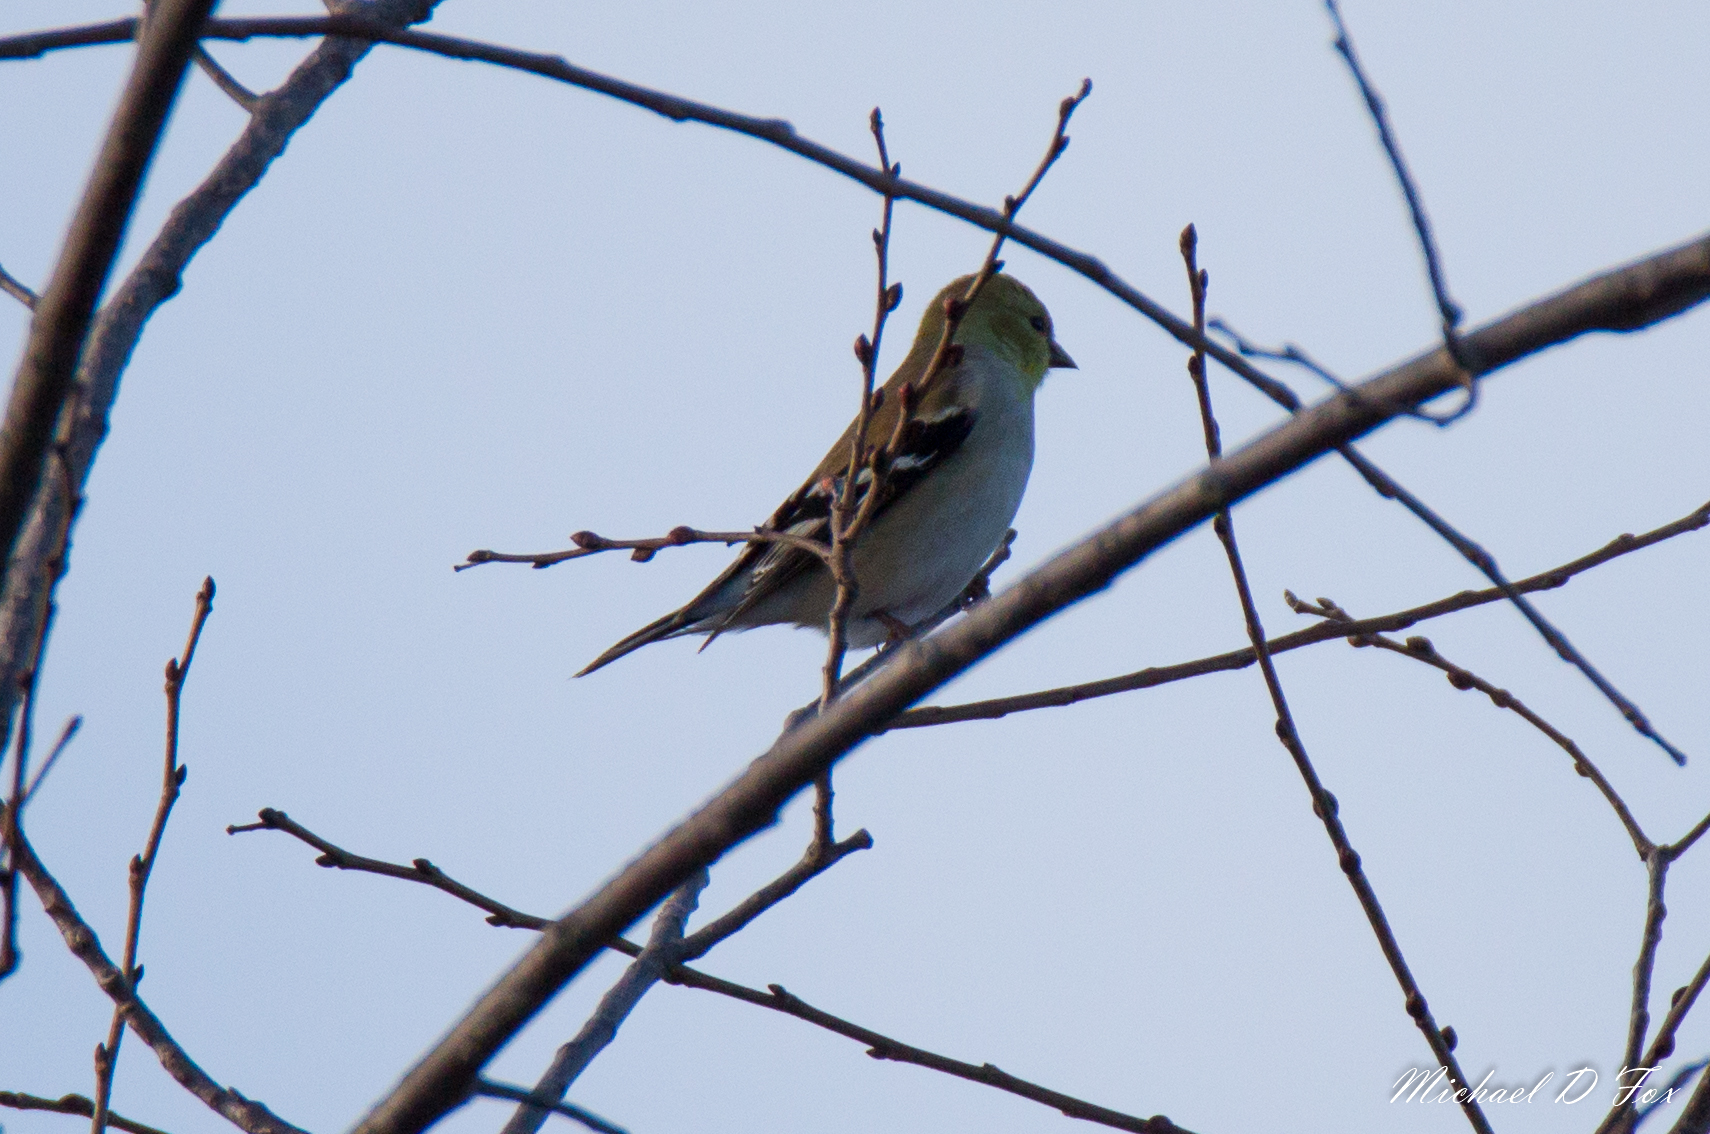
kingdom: Animalia
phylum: Chordata
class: Aves
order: Passeriformes
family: Fringillidae
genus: Spinus
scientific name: Spinus tristis
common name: American goldfinch
